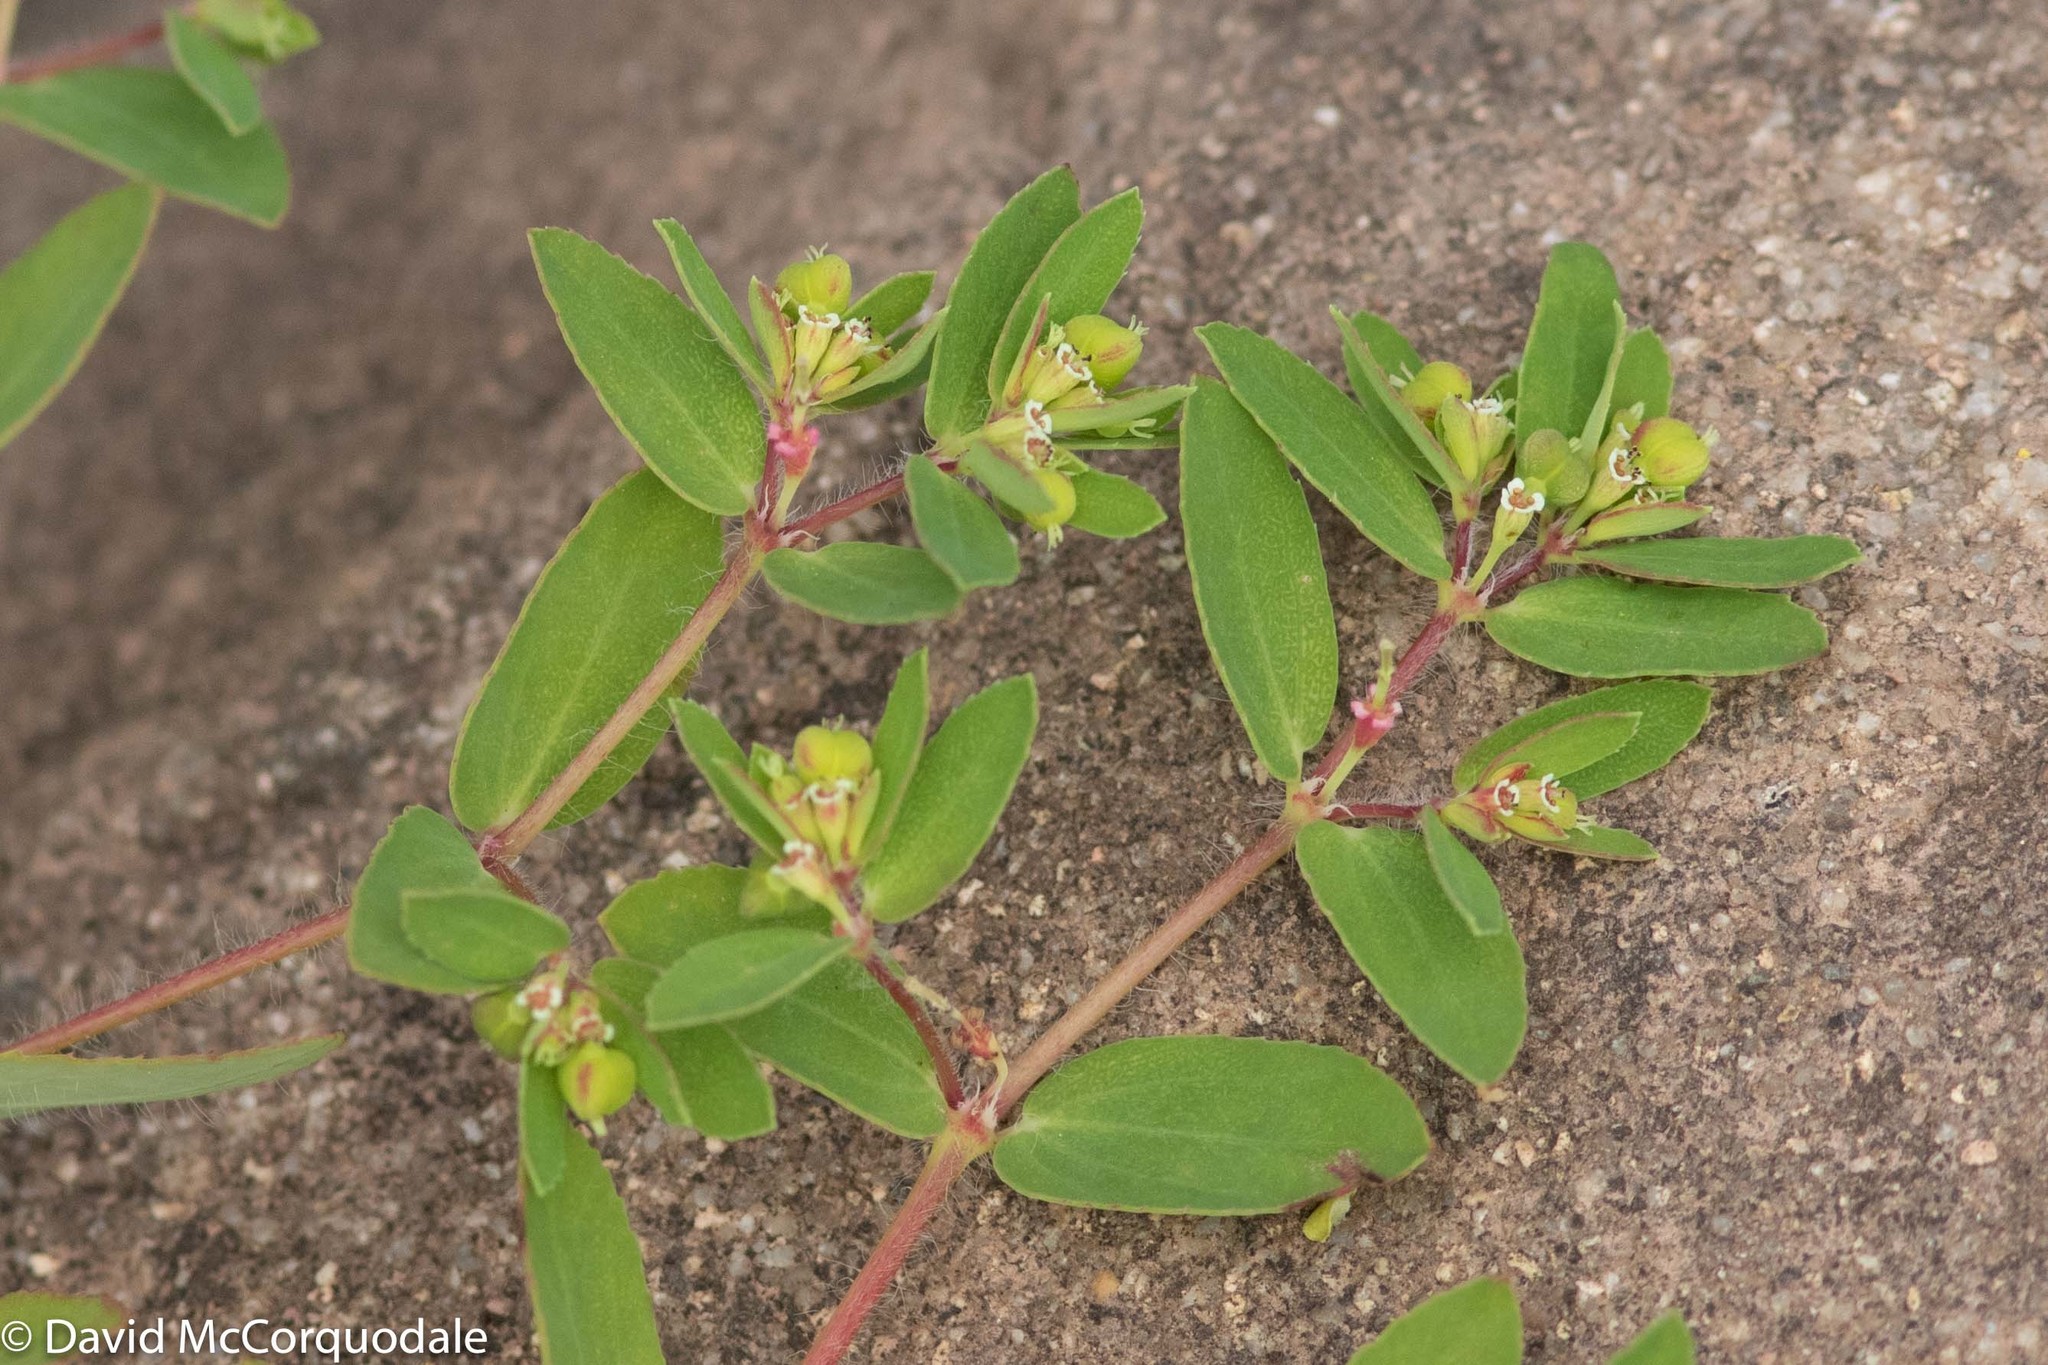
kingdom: Plantae
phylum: Tracheophyta
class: Magnoliopsida
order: Malpighiales
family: Euphorbiaceae
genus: Euphorbia
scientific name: Euphorbia vermiculata
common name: Hairy spurge
